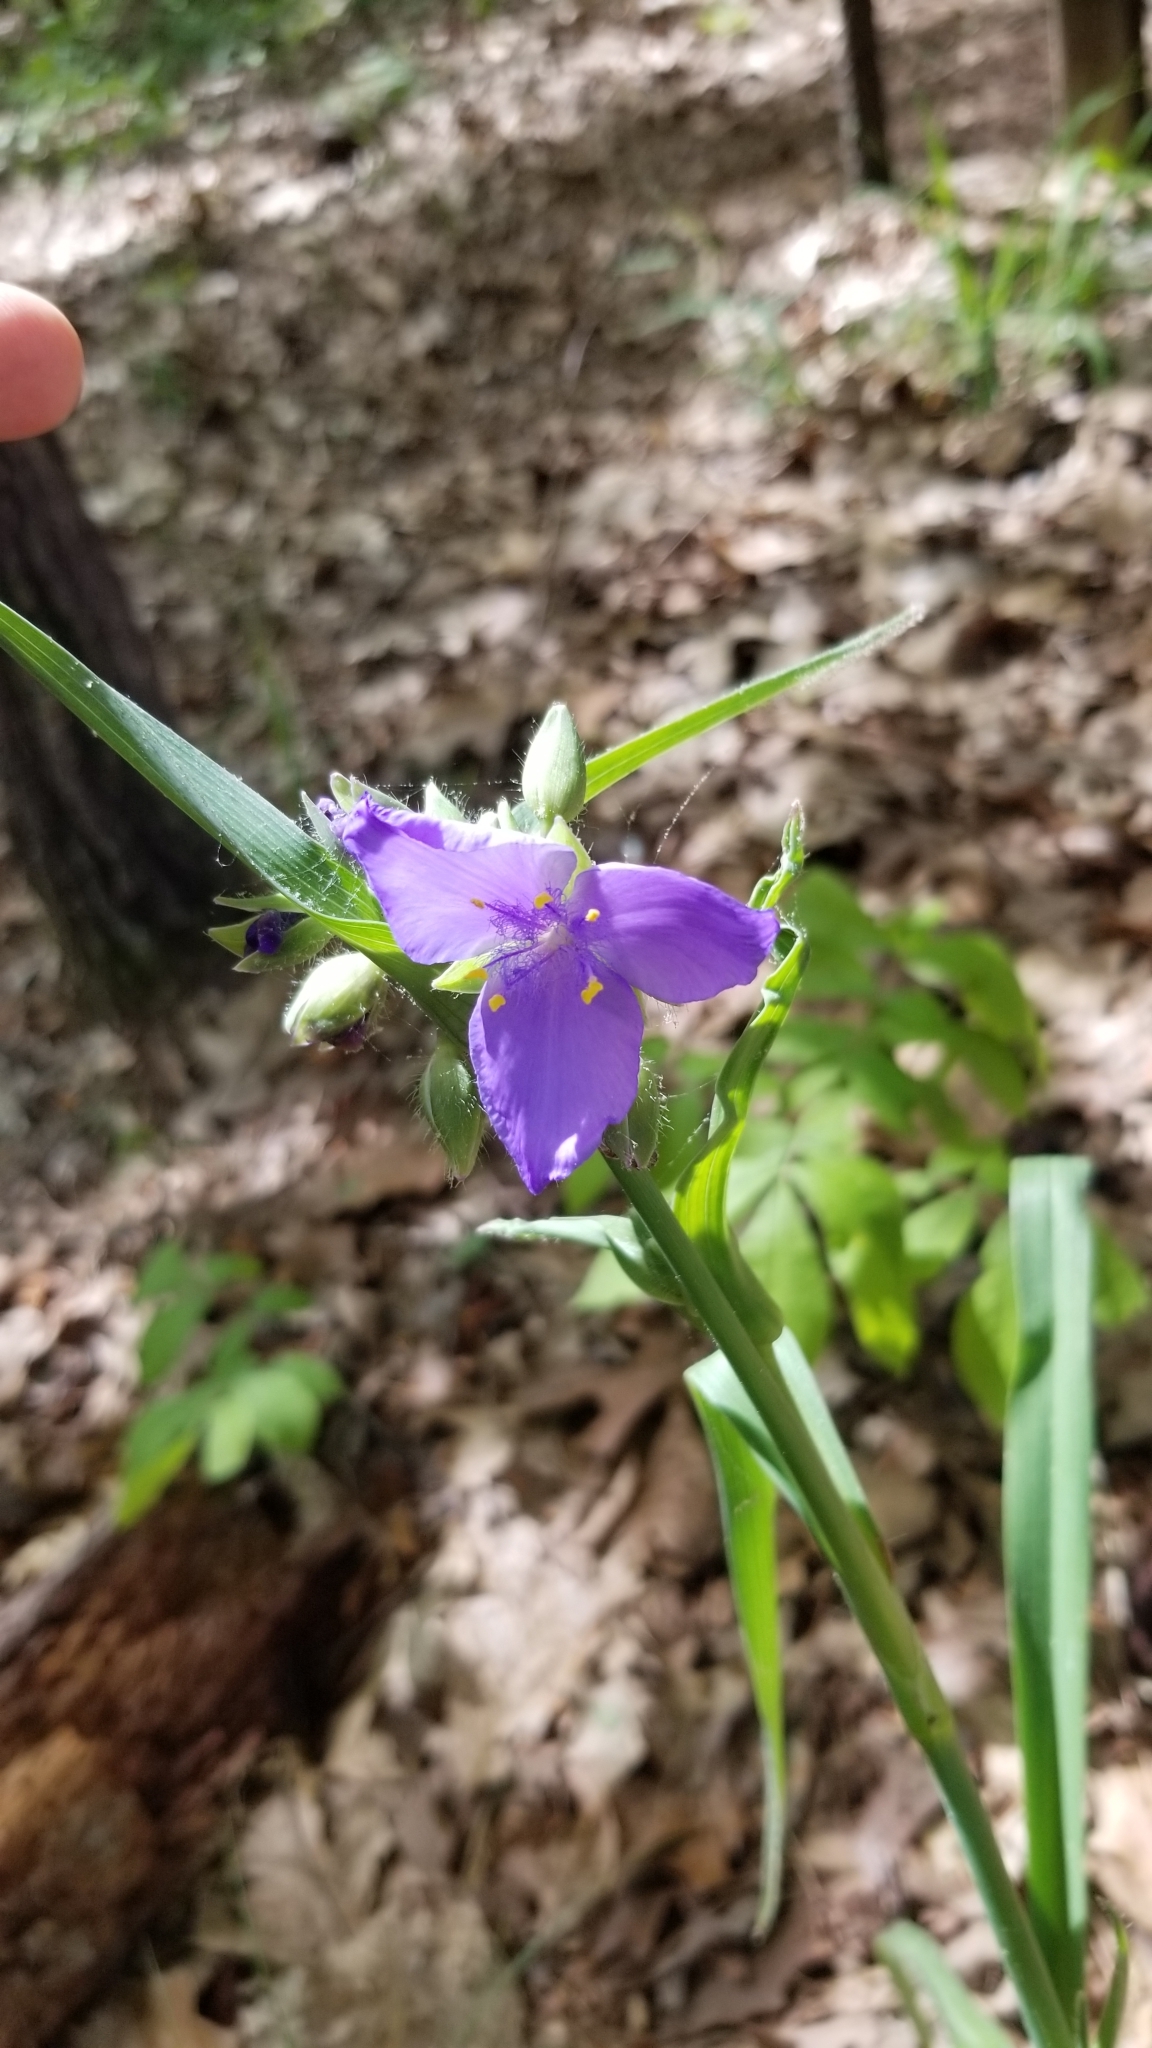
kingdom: Plantae
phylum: Tracheophyta
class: Liliopsida
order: Commelinales
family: Commelinaceae
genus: Tradescantia
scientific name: Tradescantia virginiana
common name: Spiderwort
